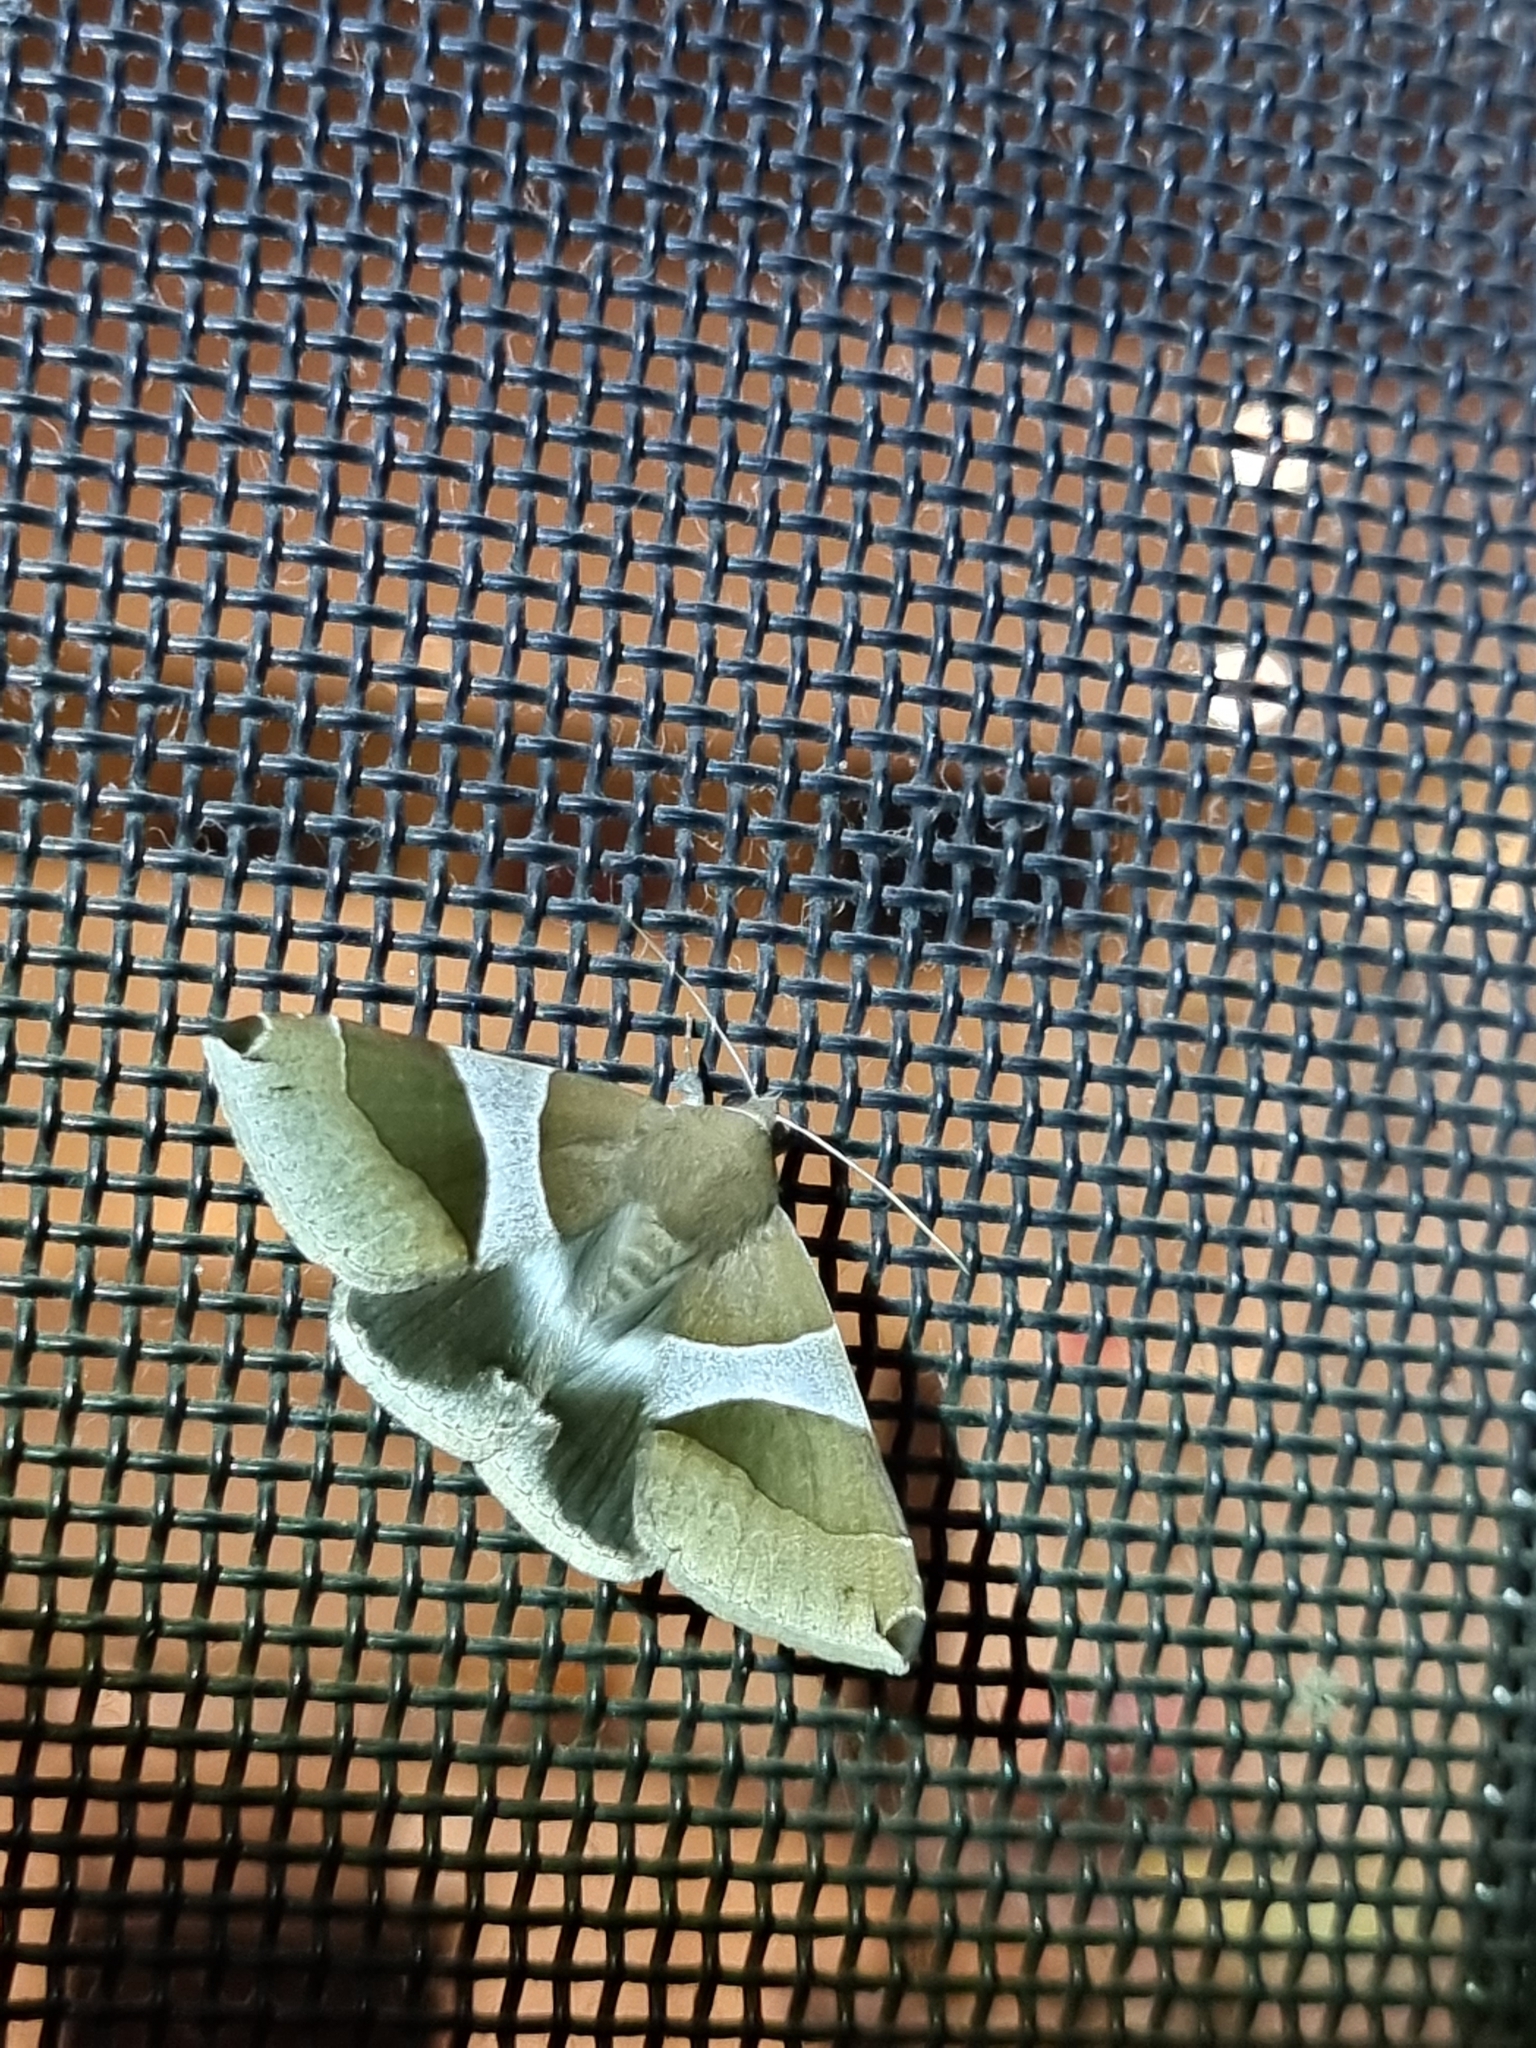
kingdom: Animalia
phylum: Arthropoda
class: Insecta
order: Lepidoptera
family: Erebidae
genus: Dysgonia
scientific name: Dysgonia constricta
